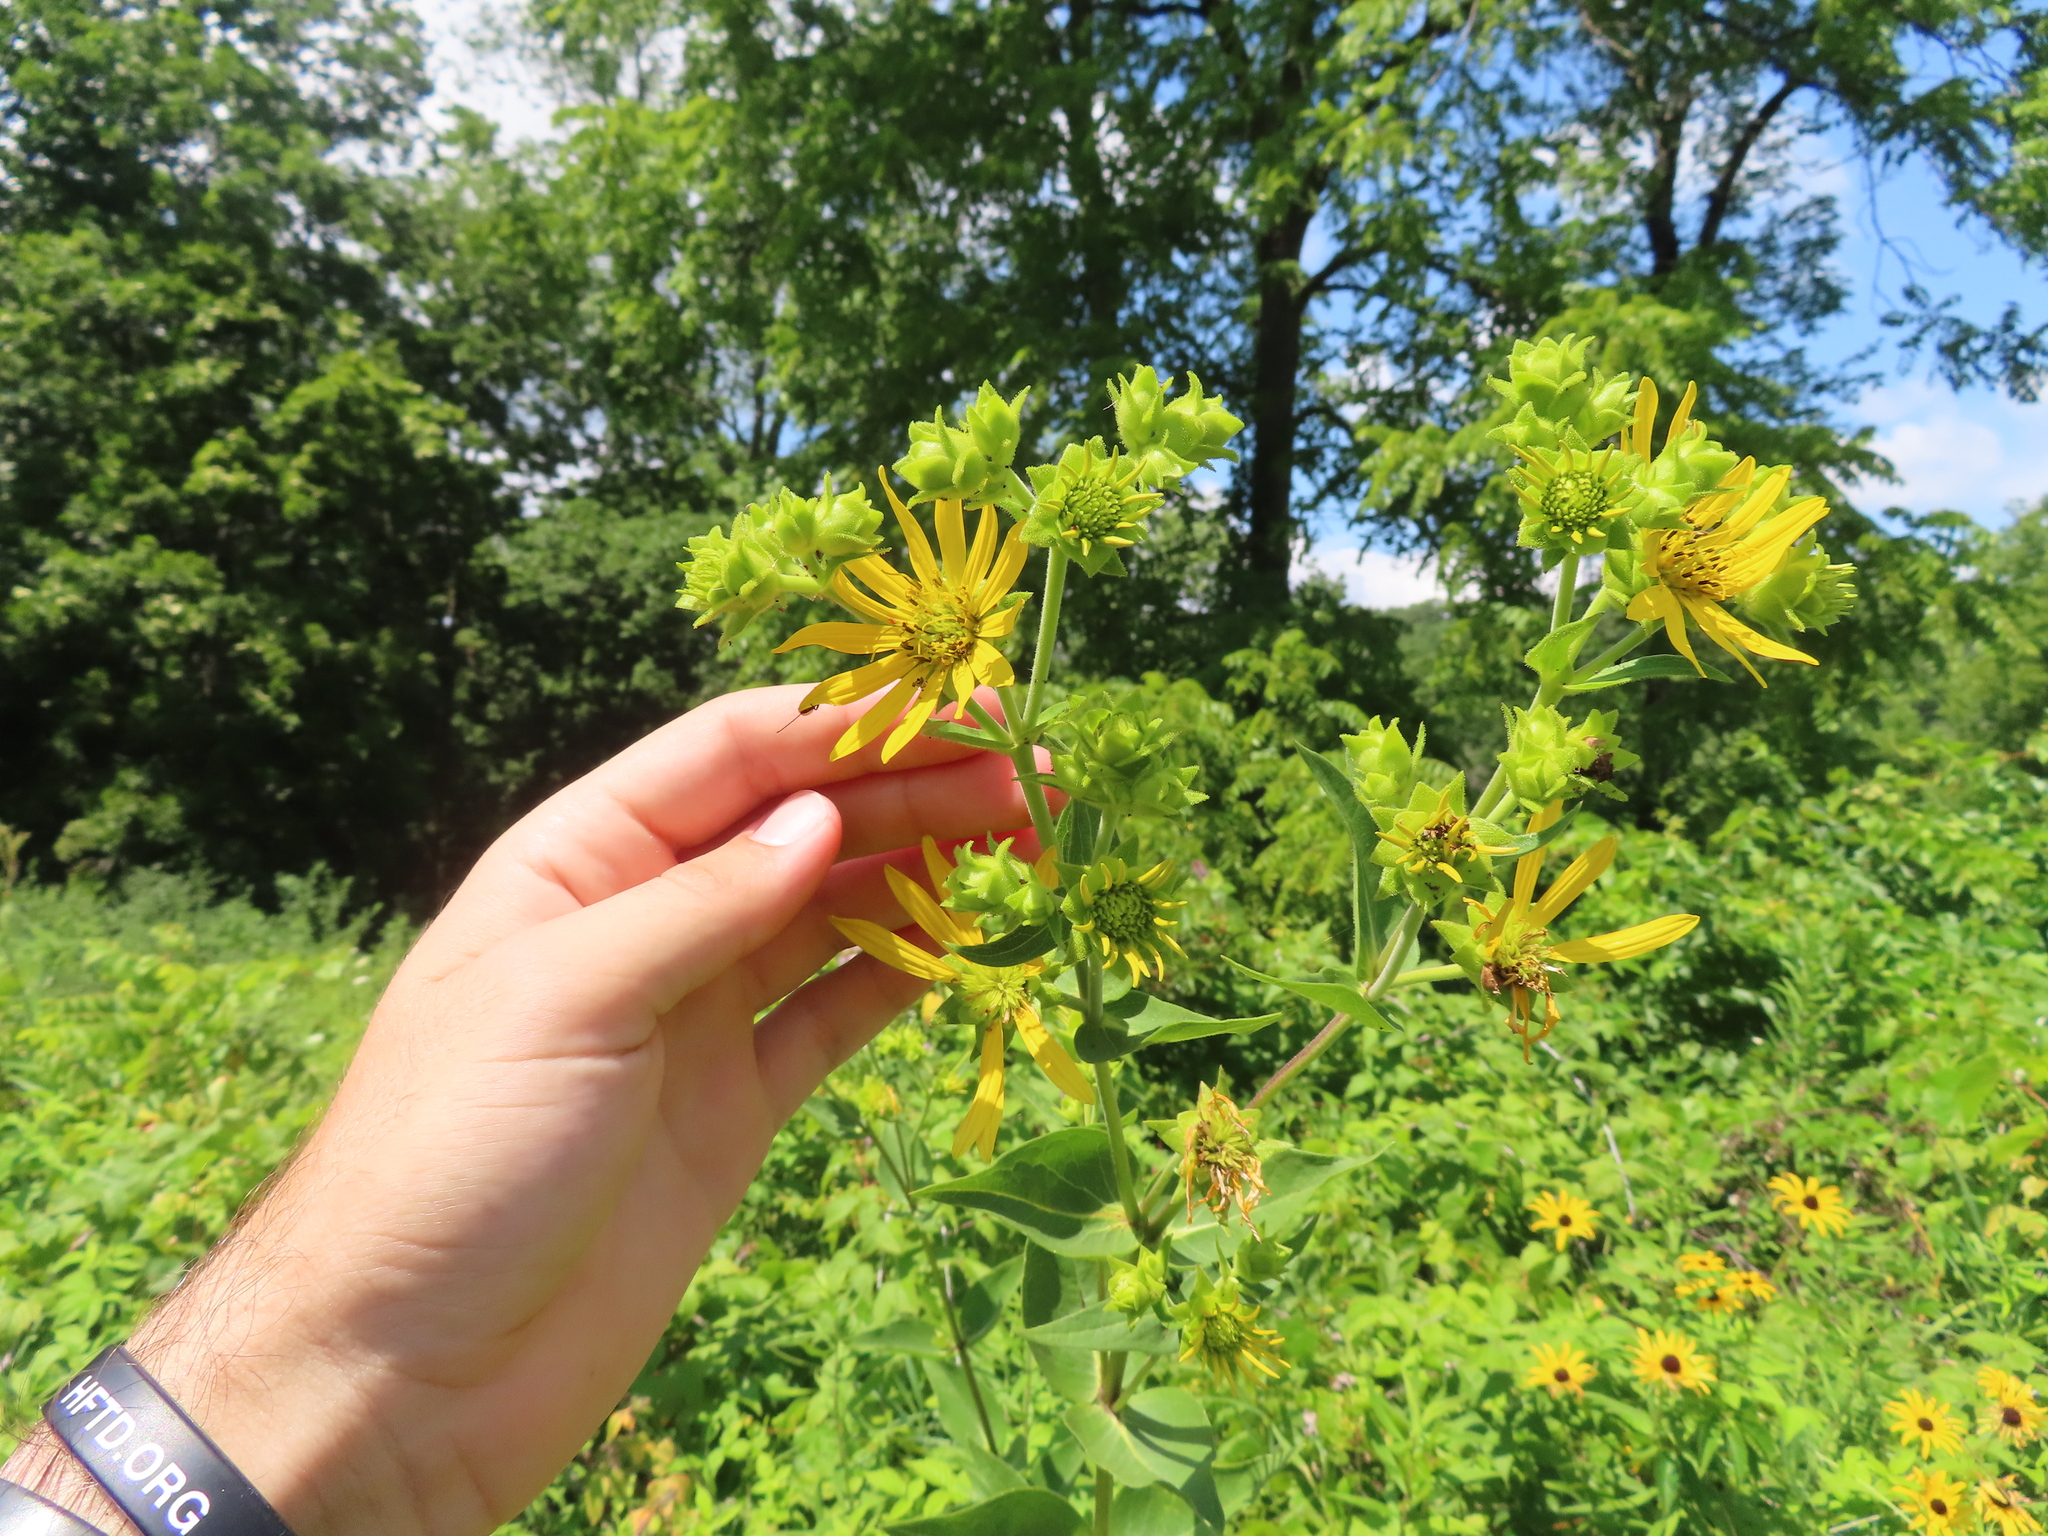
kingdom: Plantae
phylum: Tracheophyta
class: Magnoliopsida
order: Asterales
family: Asteraceae
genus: Silphium
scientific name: Silphium integrifolium
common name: Whole-leaf rosinweed
